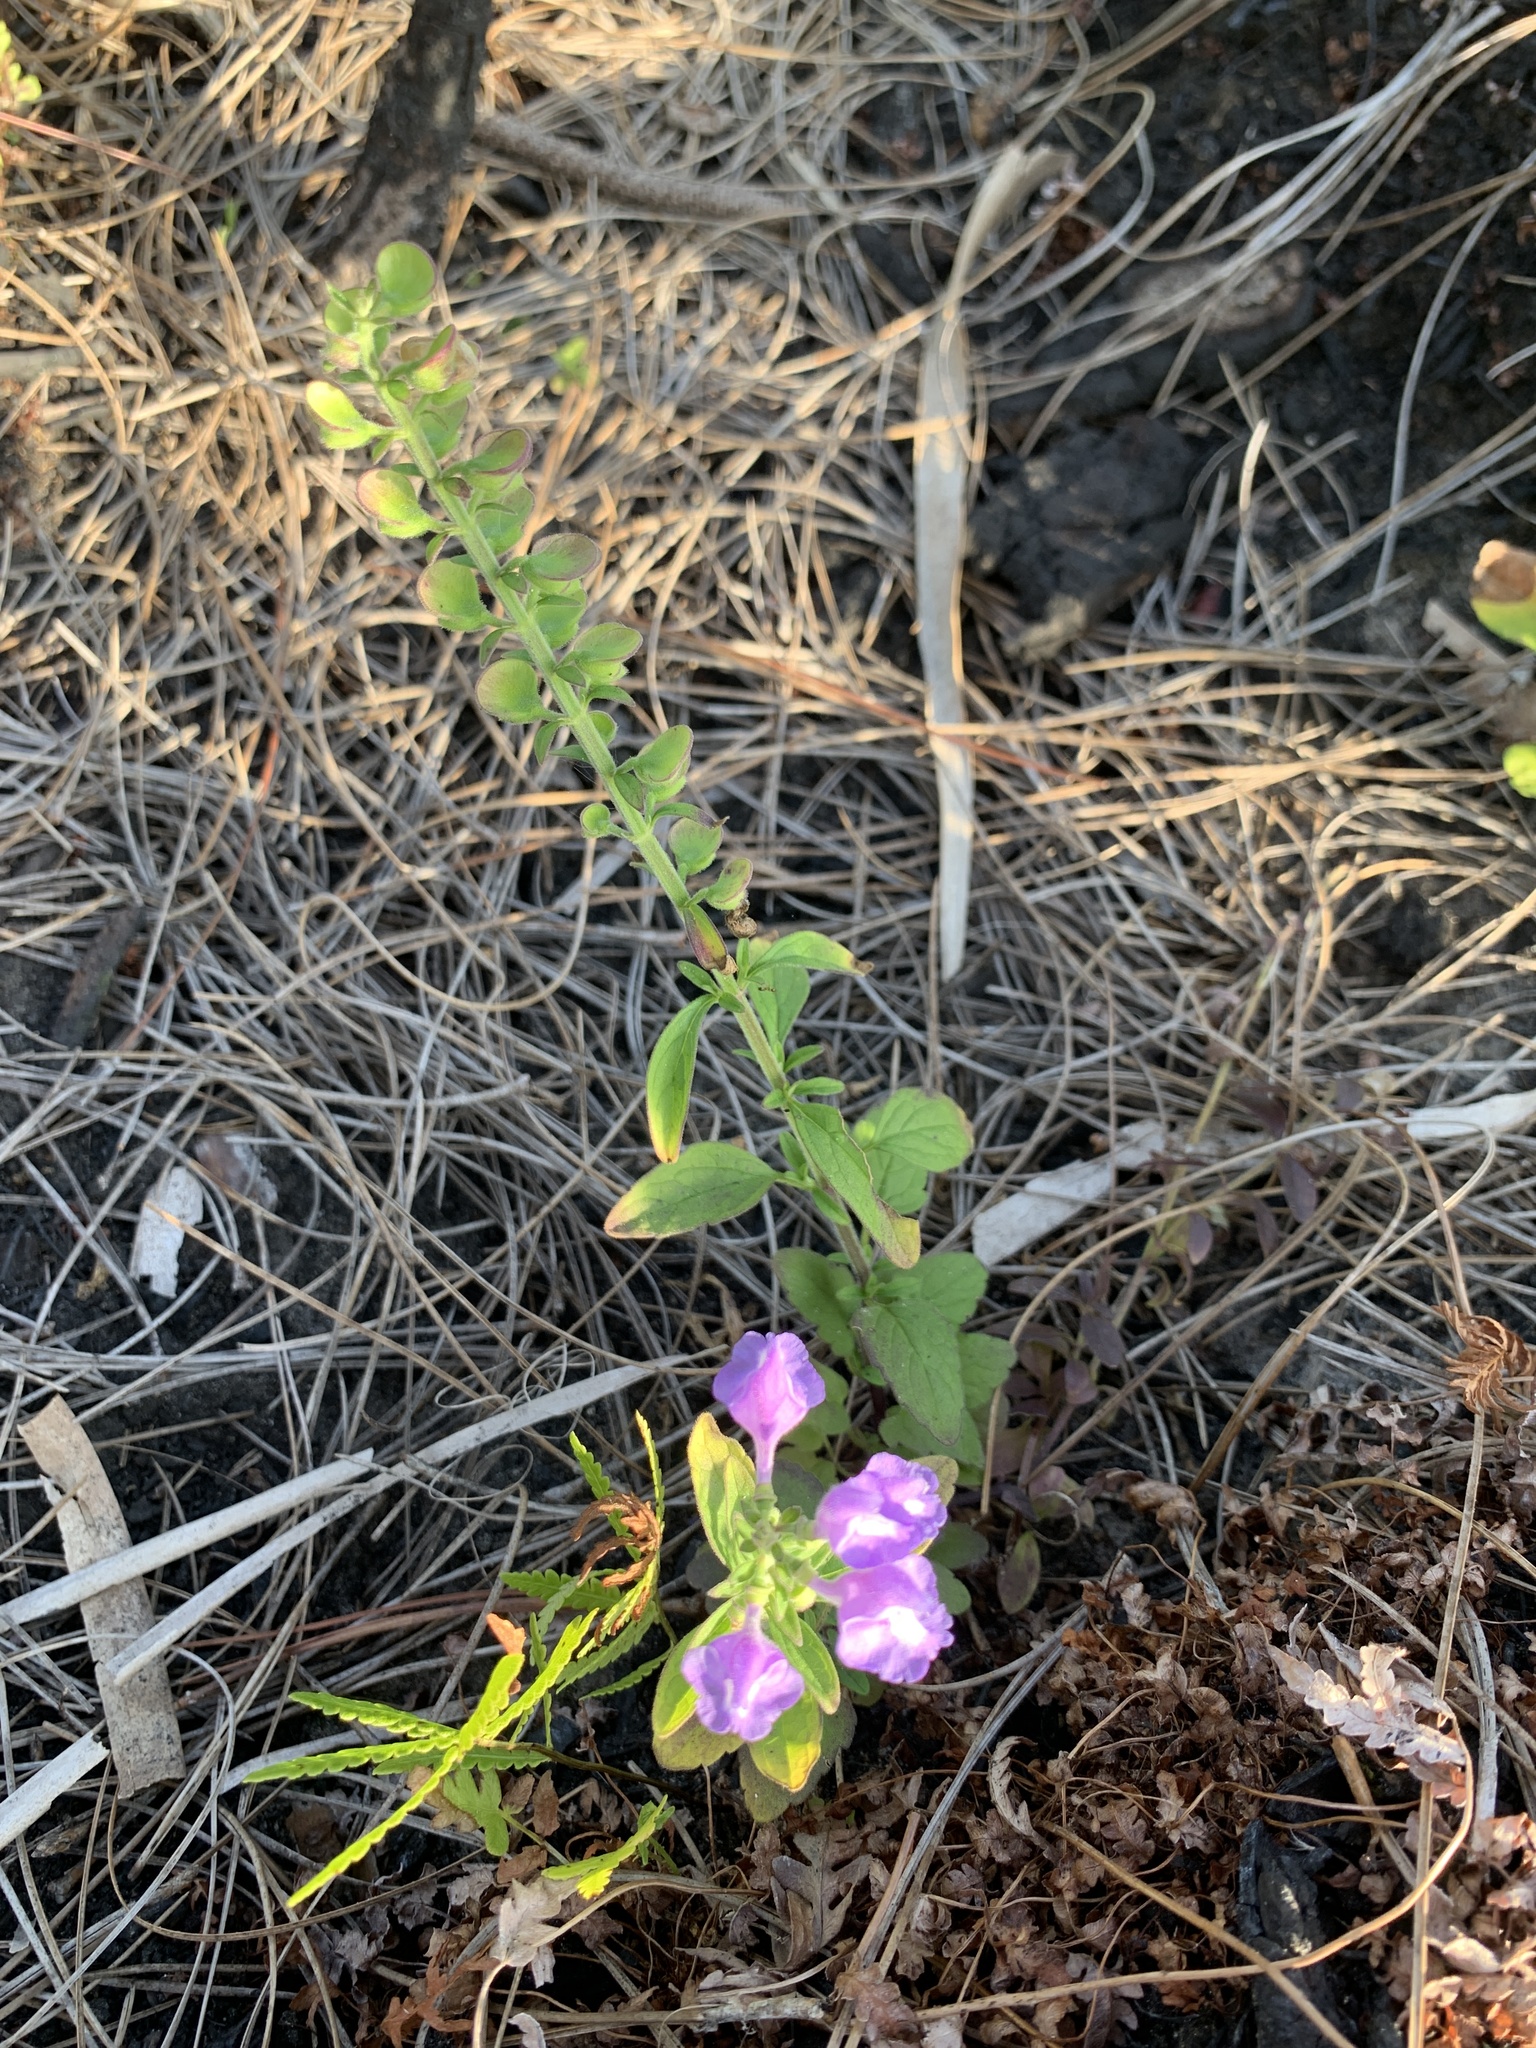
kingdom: Plantae
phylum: Tracheophyta
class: Magnoliopsida
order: Lamiales
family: Lamiaceae
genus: Scutellaria
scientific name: Scutellaria integrifolia
